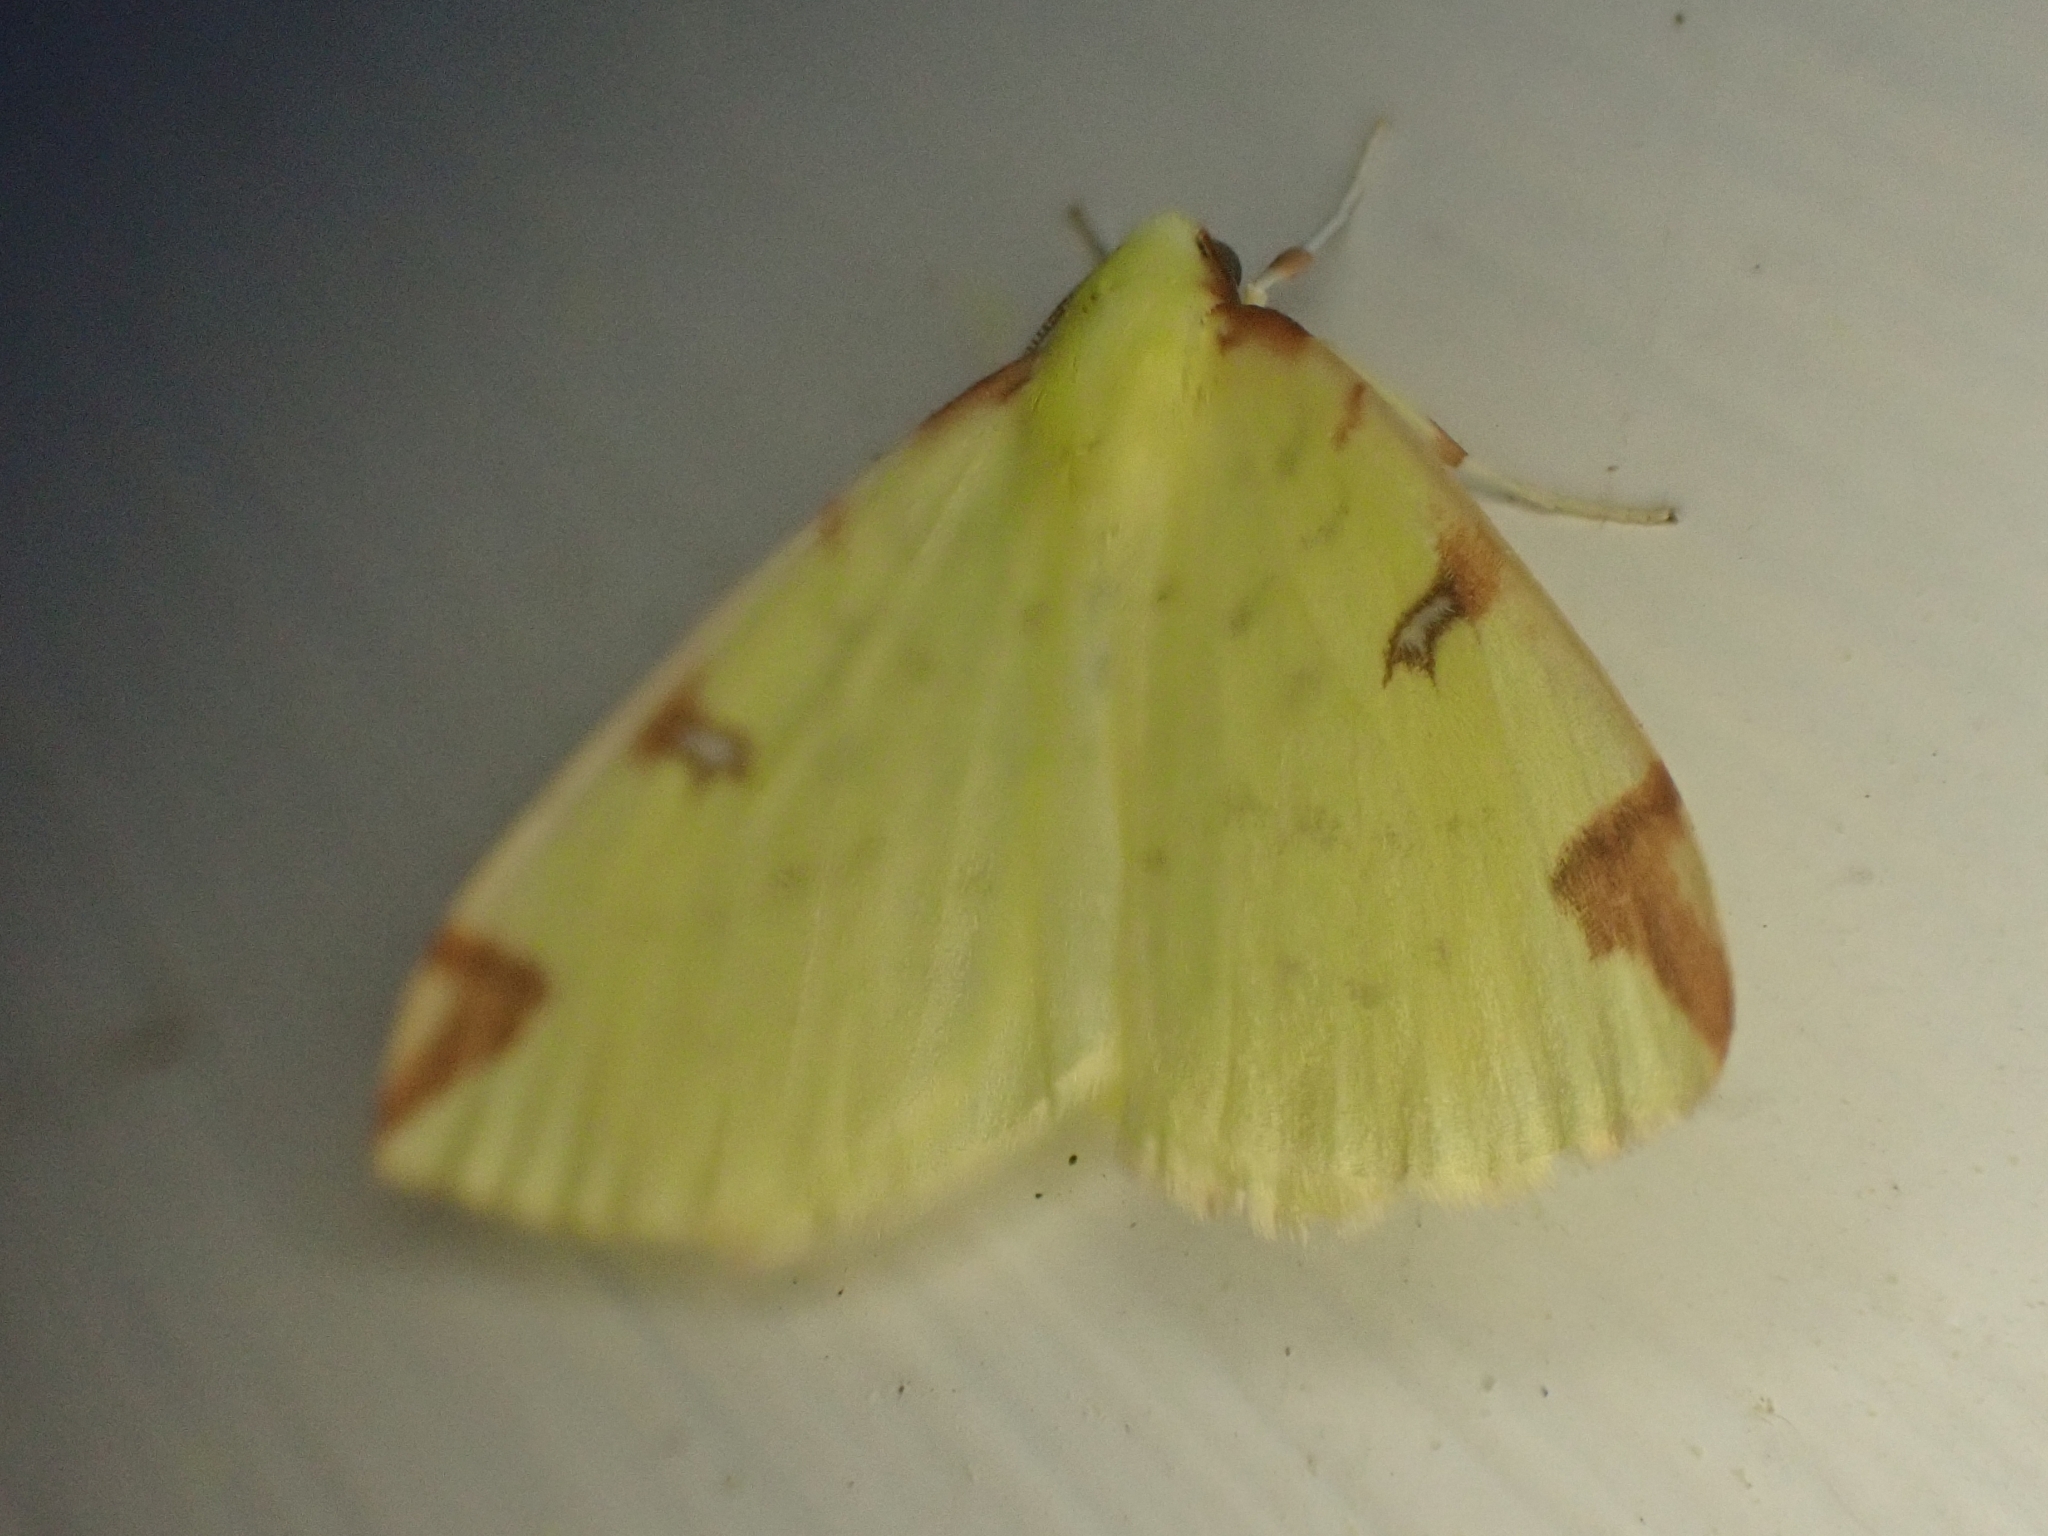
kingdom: Animalia
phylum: Arthropoda
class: Insecta
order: Lepidoptera
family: Geometridae
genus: Opisthograptis
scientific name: Opisthograptis luteolata
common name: Brimstone moth
